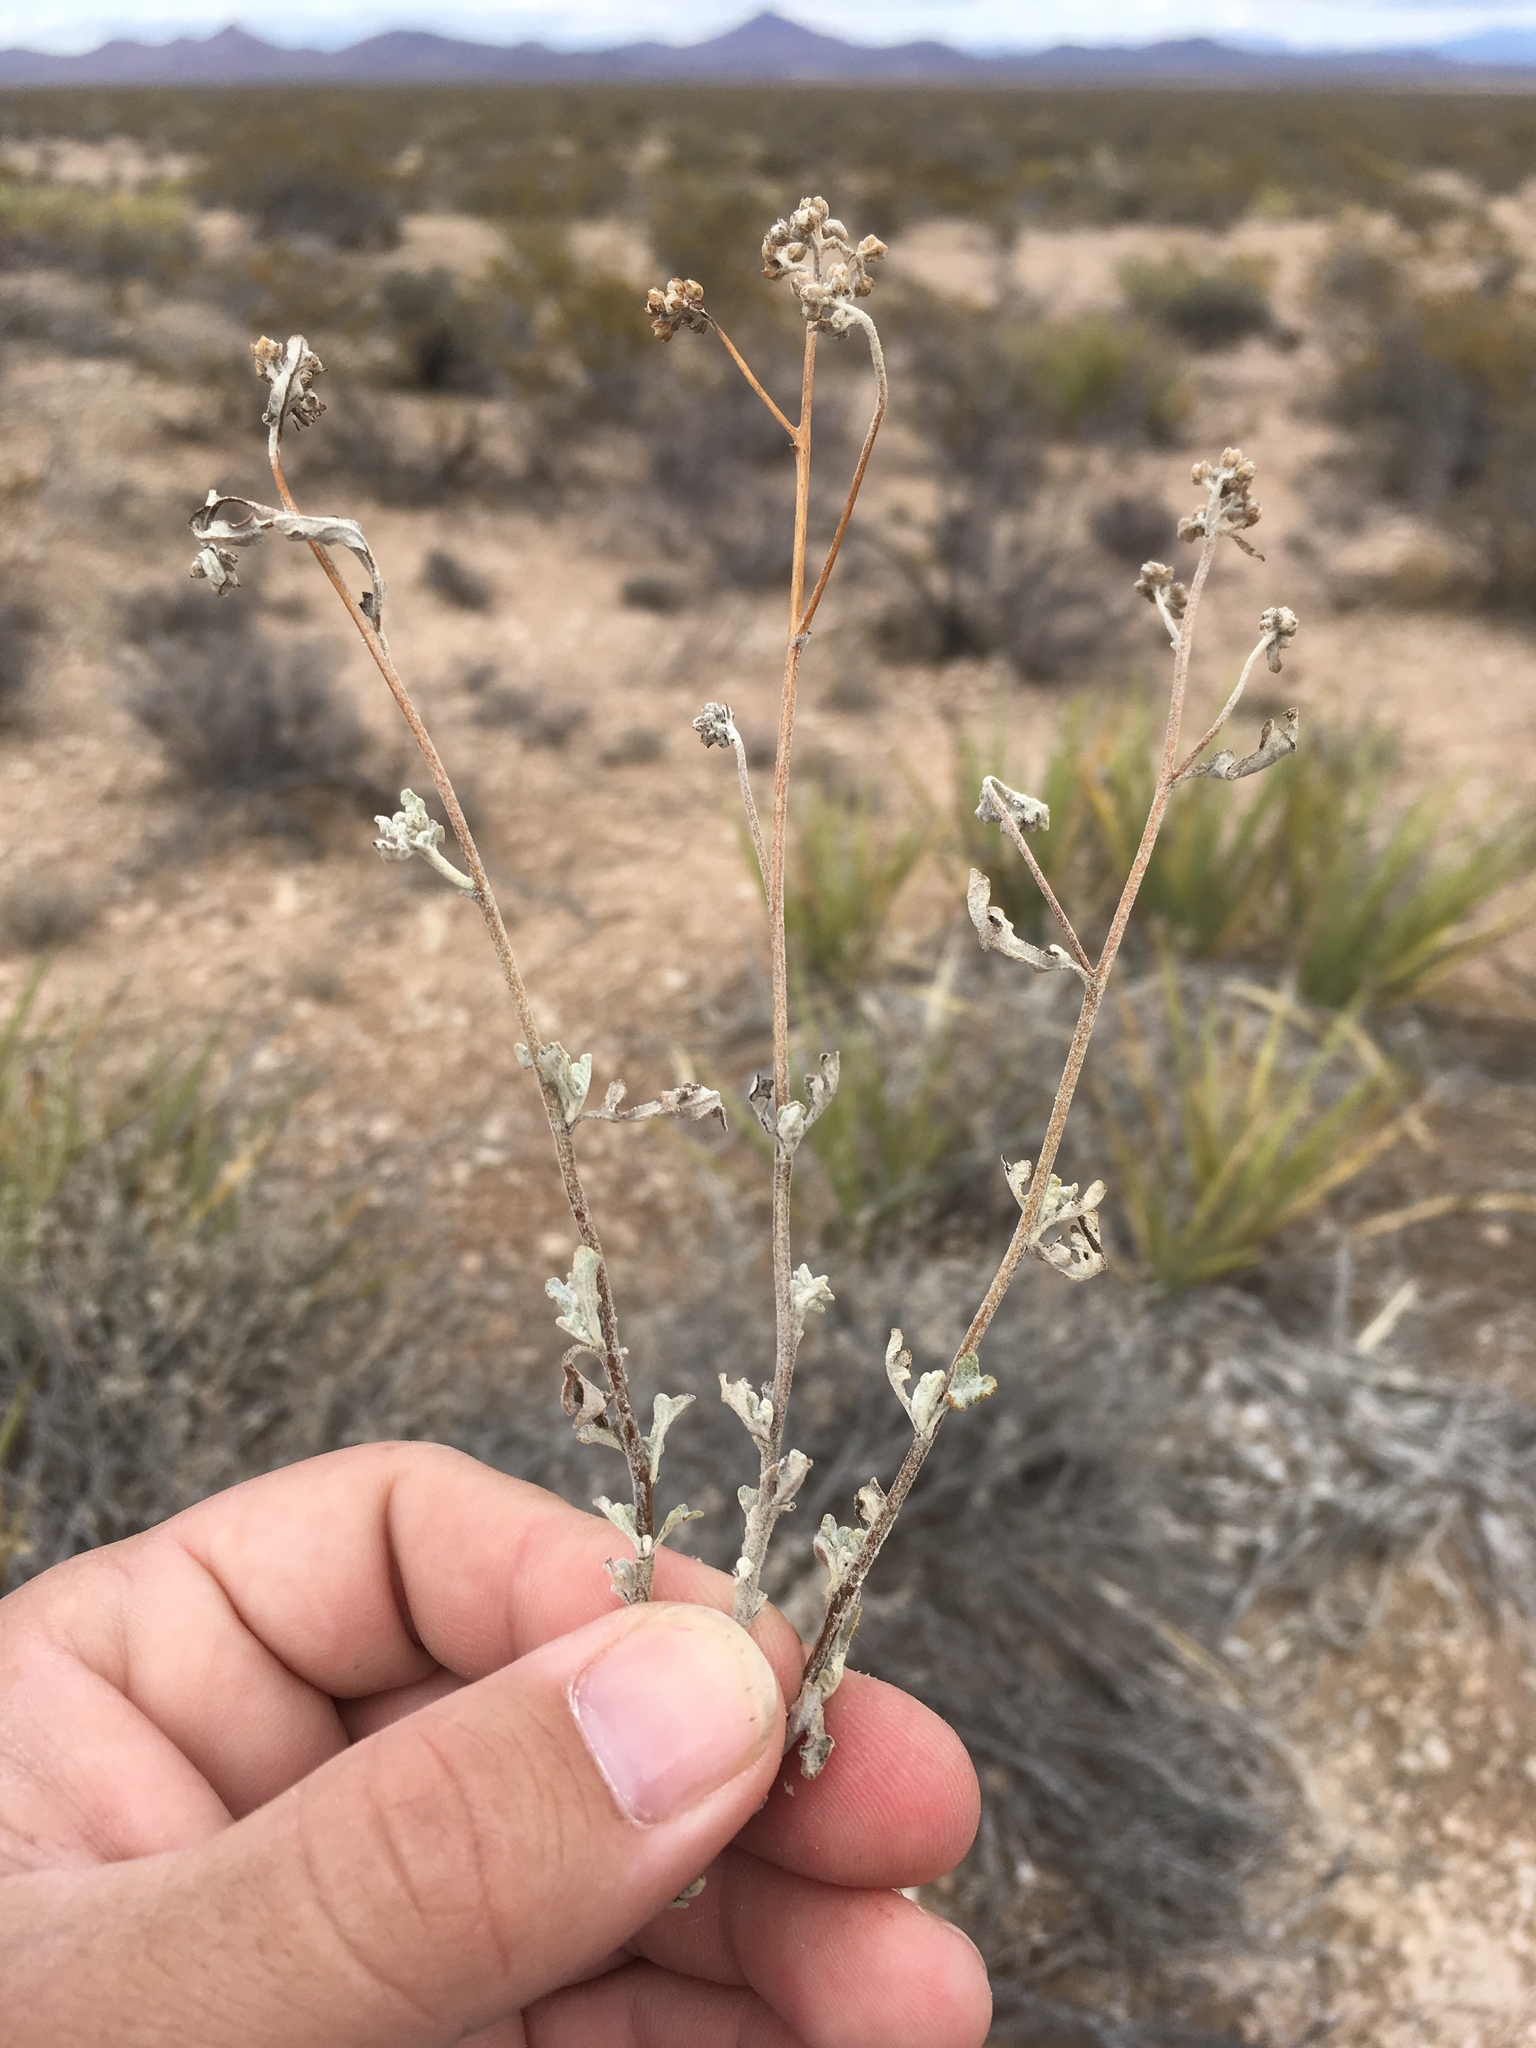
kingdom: Plantae
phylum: Tracheophyta
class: Magnoliopsida
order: Asterales
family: Asteraceae
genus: Parthenium
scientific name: Parthenium incanum
